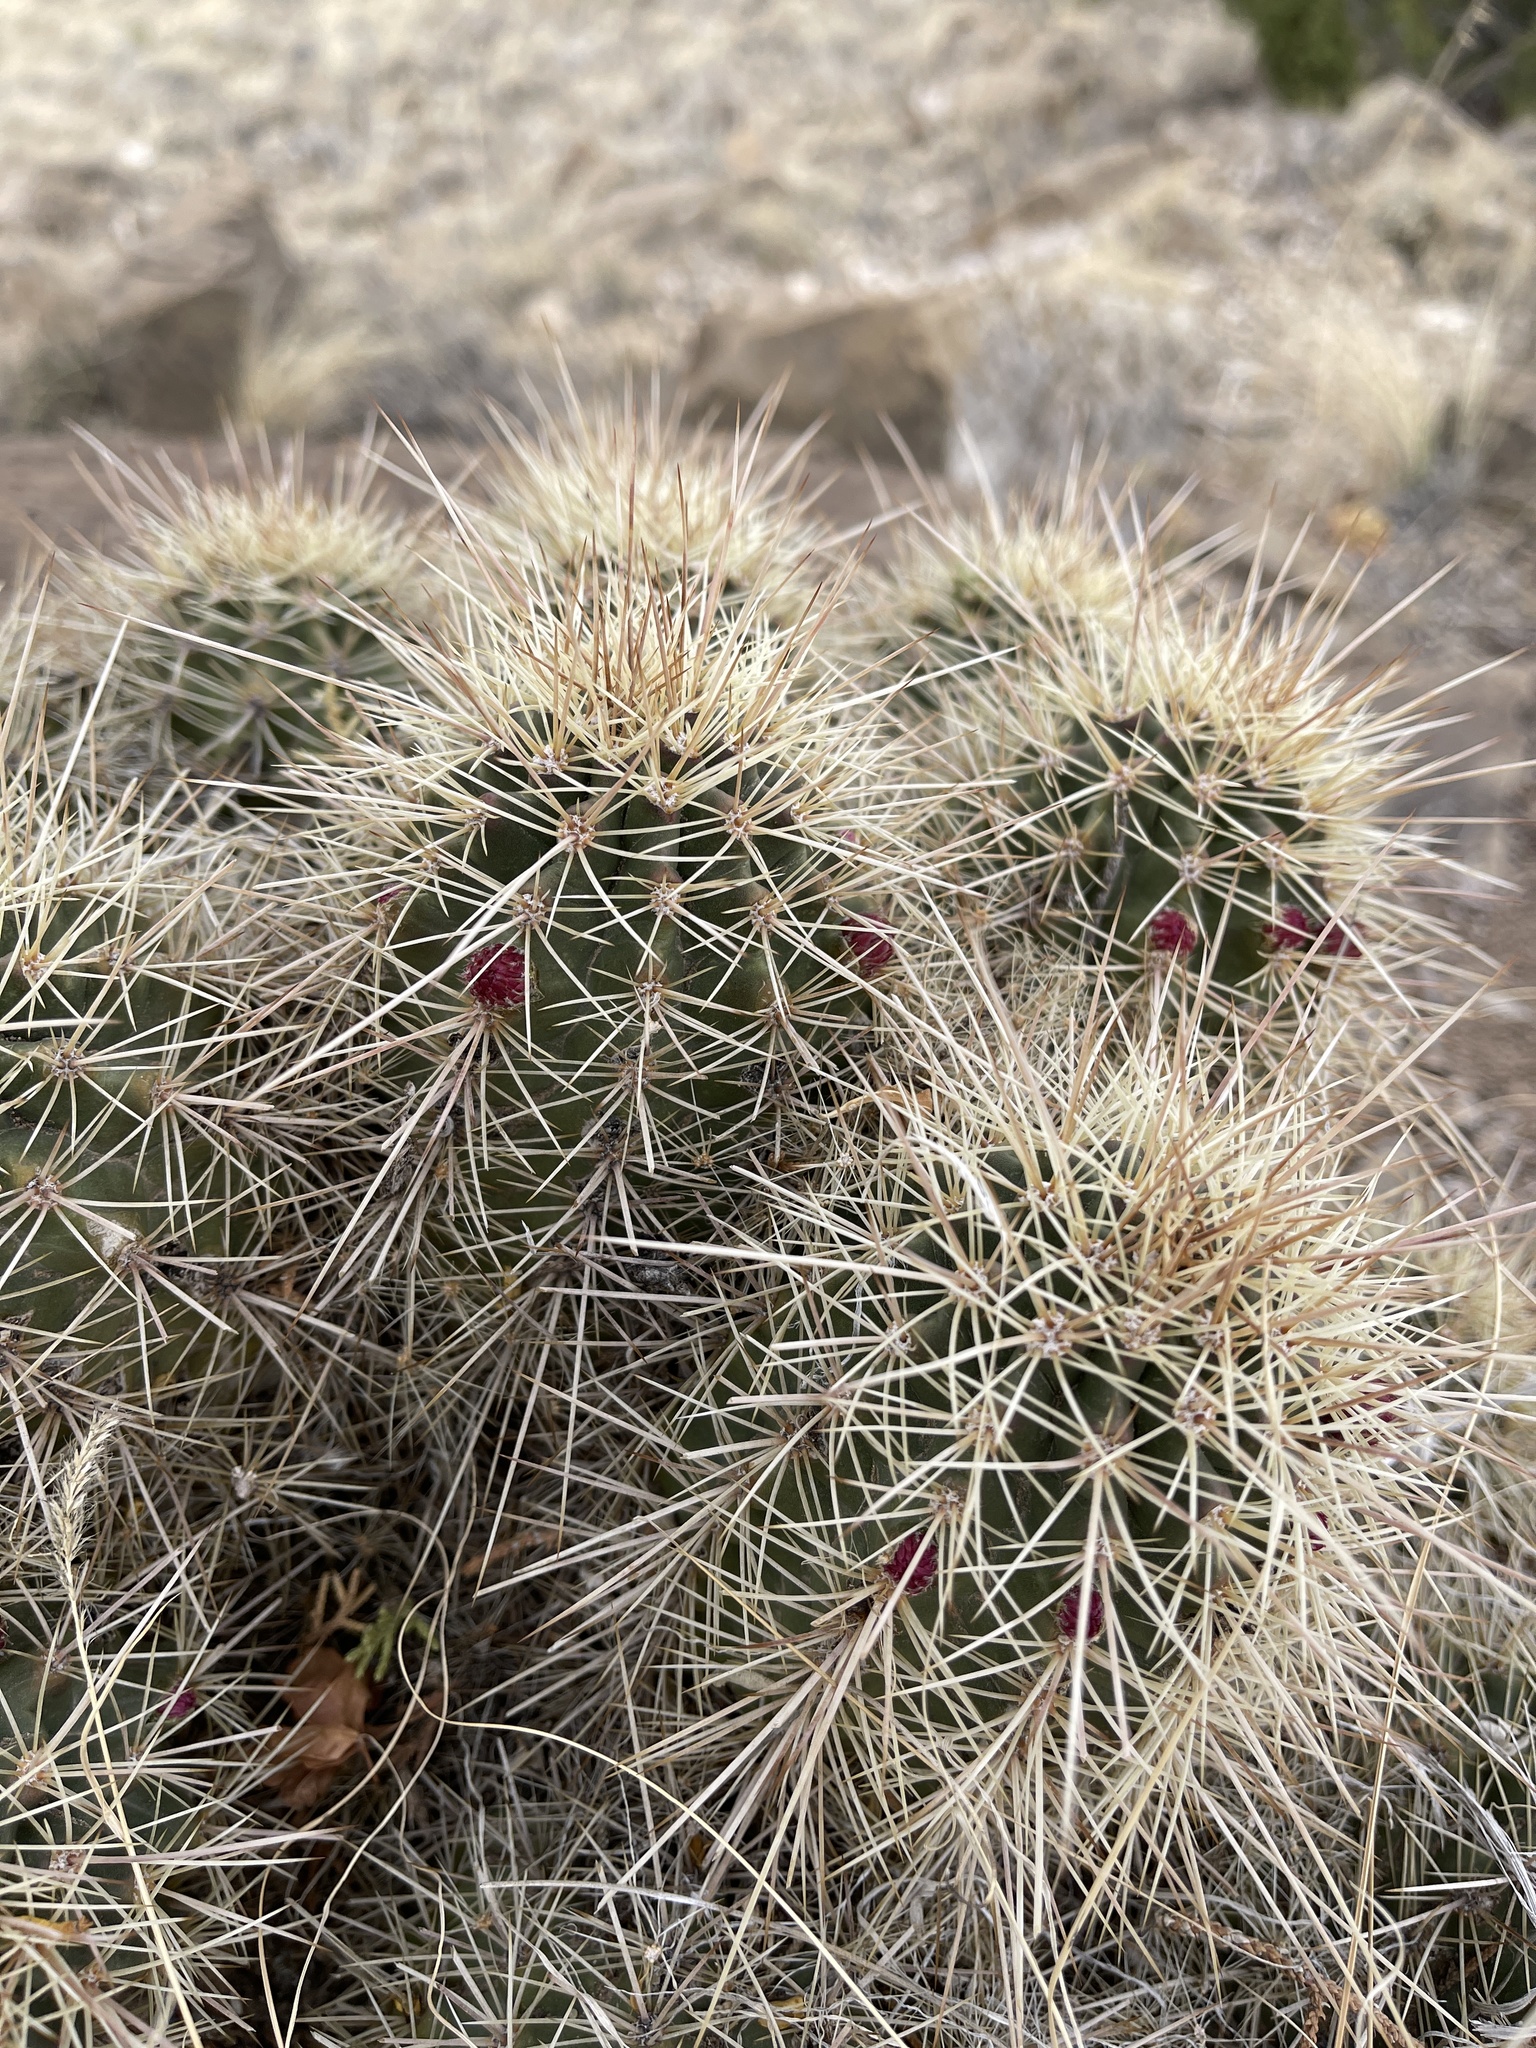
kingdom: Plantae
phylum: Tracheophyta
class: Magnoliopsida
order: Caryophyllales
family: Cactaceae
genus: Echinocereus
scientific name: Echinocereus coccineus
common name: Scarlet hedgehog cactus
